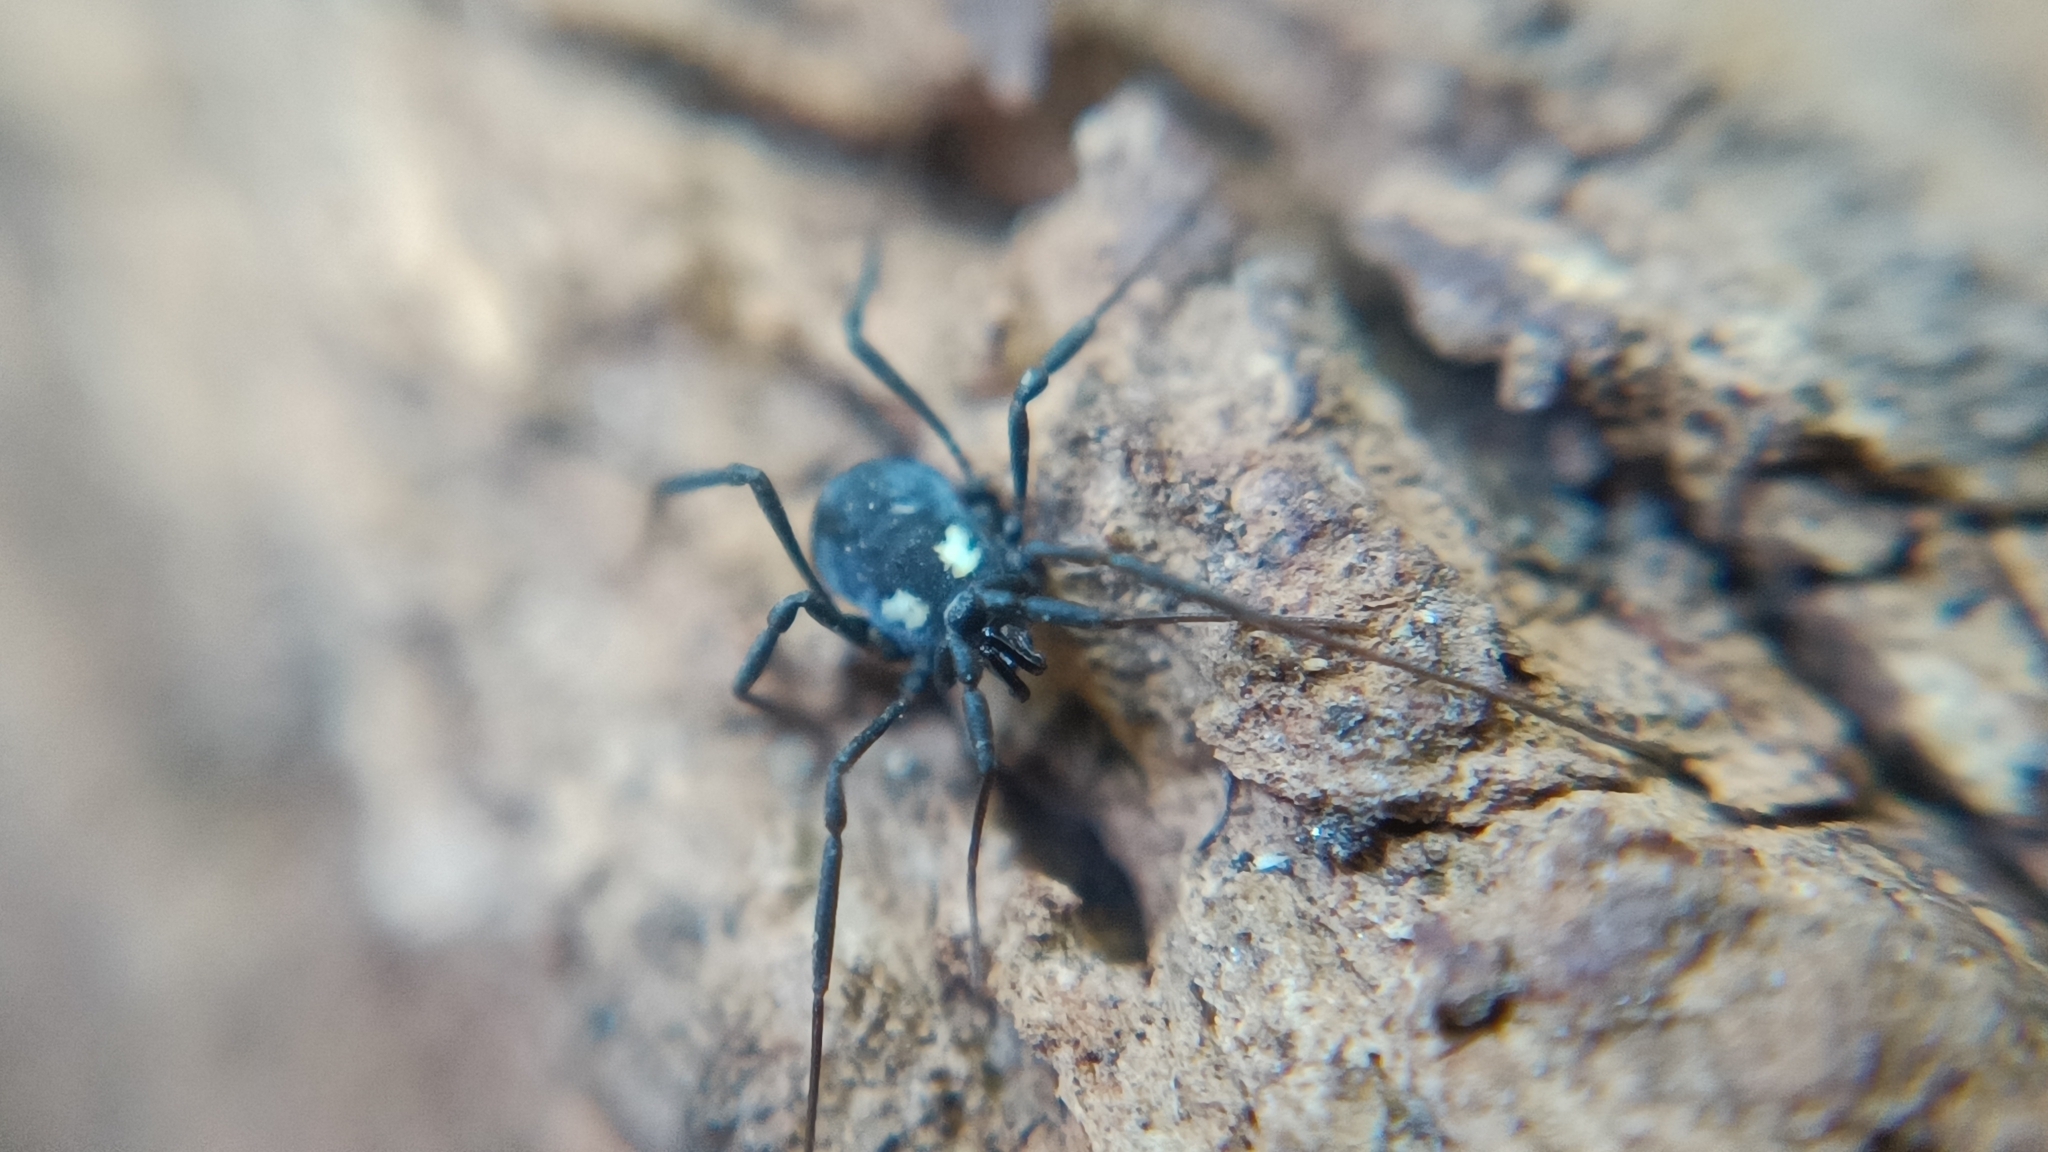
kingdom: Animalia
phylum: Arthropoda
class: Arachnida
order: Opiliones
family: Nemastomatidae
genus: Nemastoma
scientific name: Nemastoma bimaculatum
